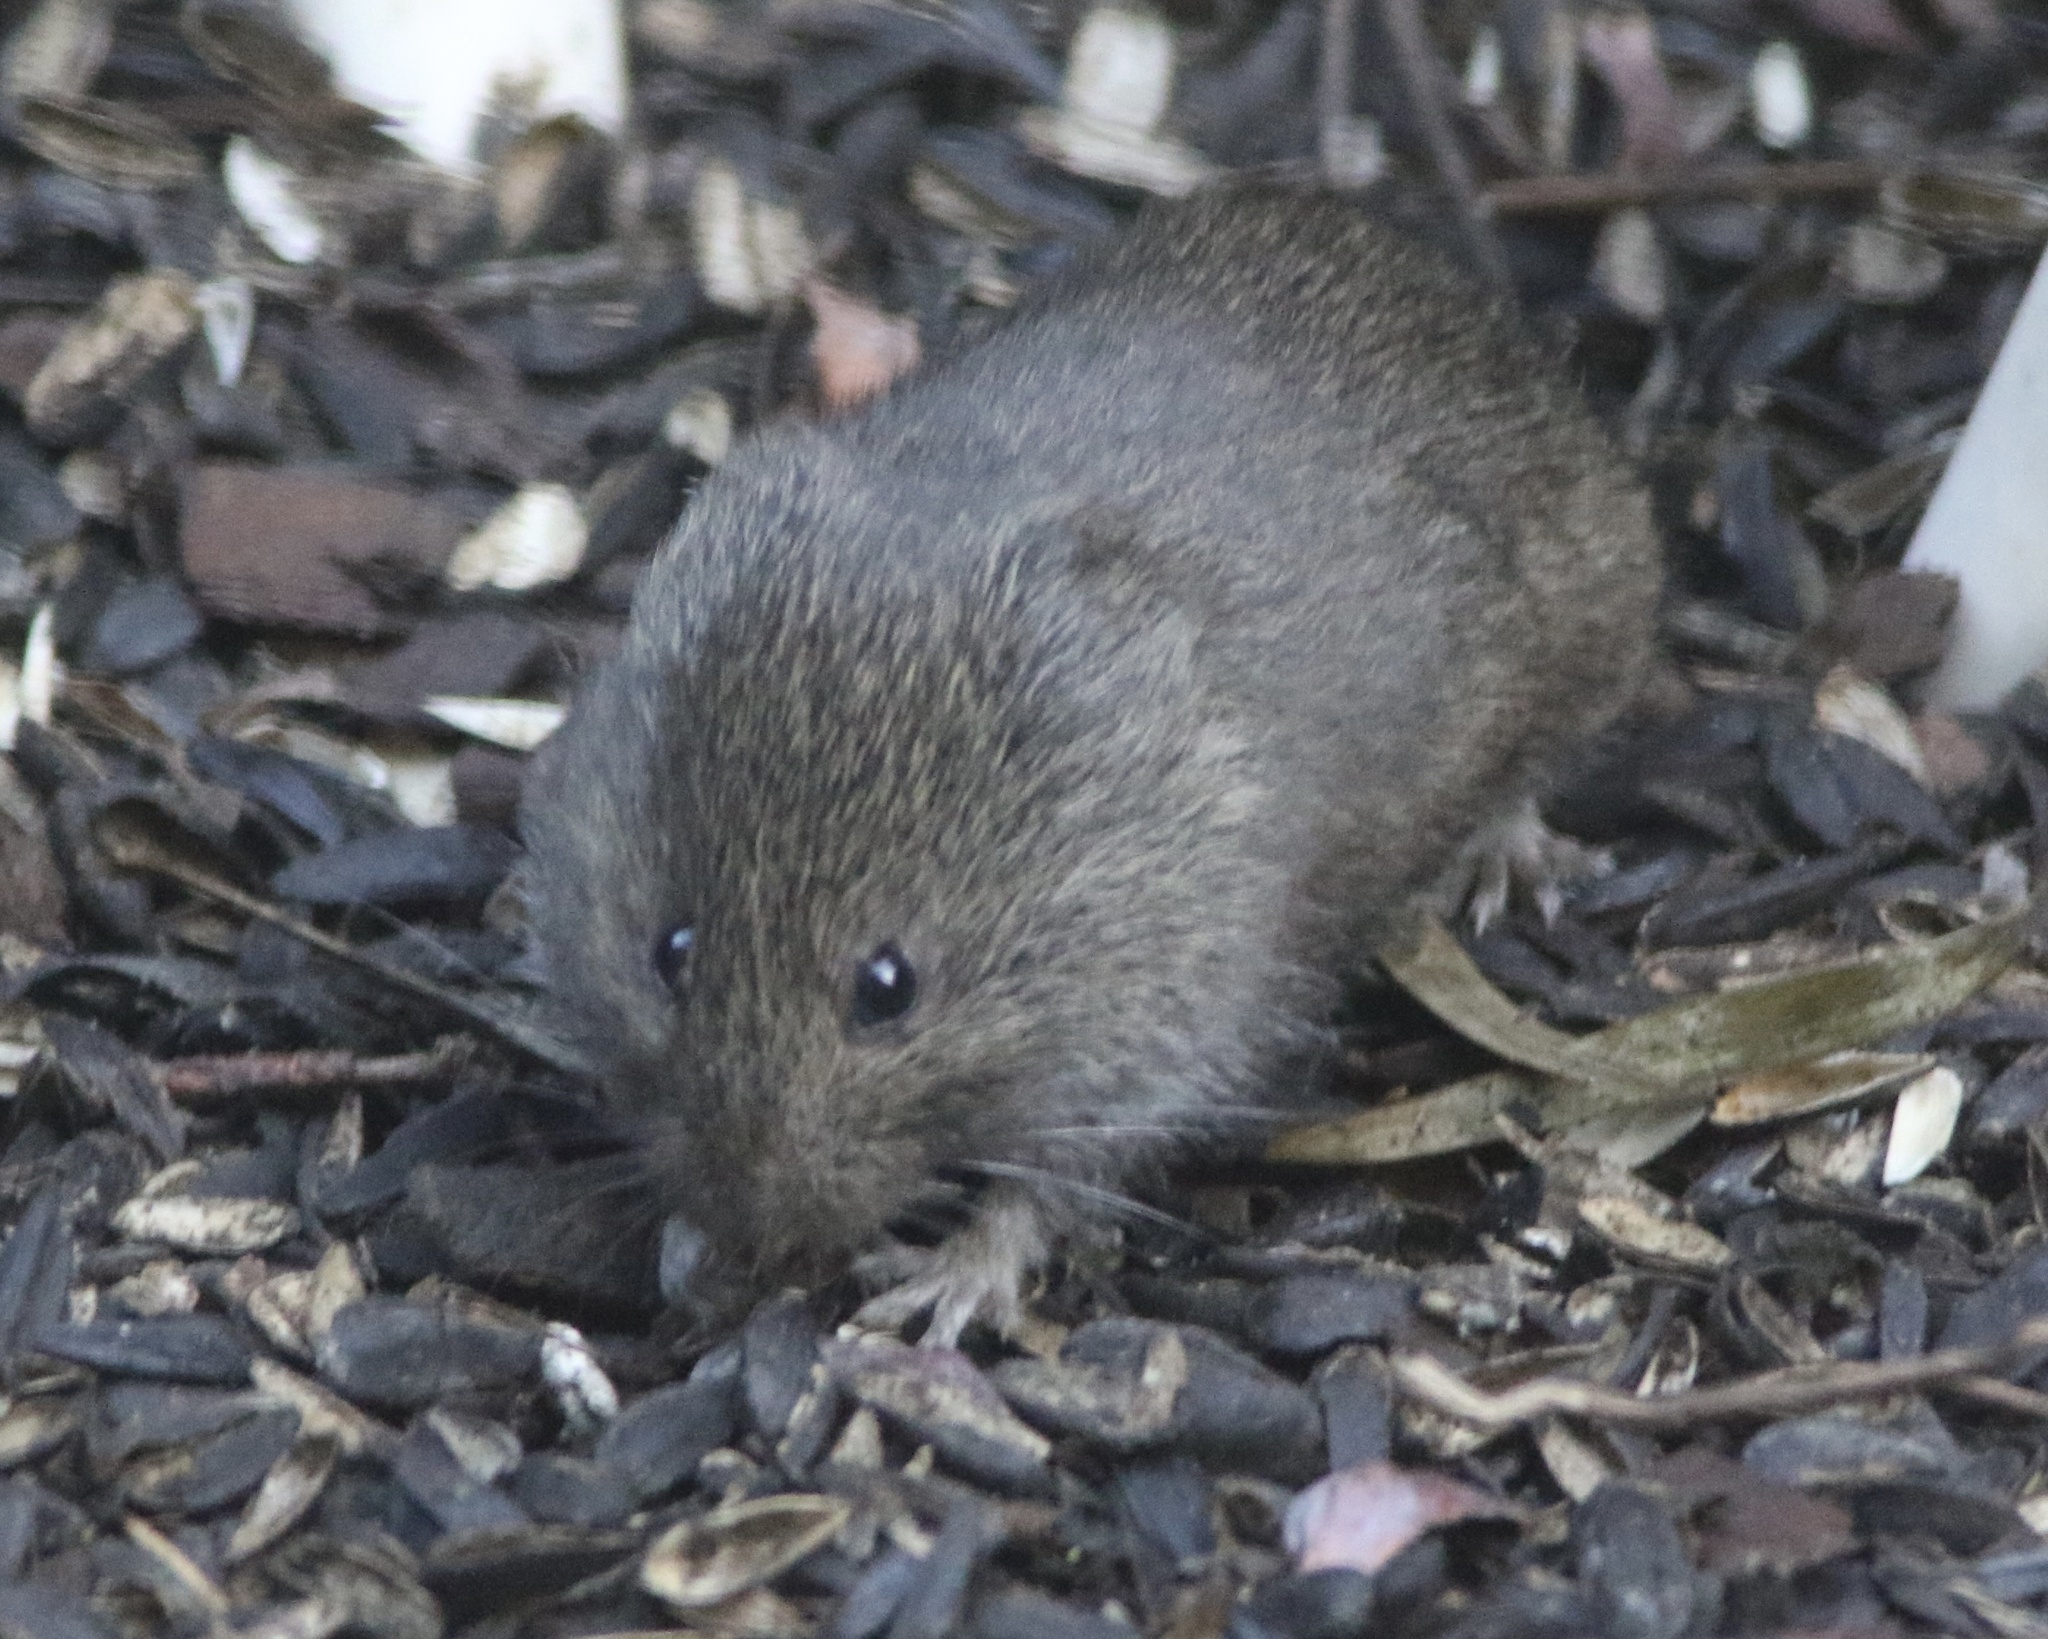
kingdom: Animalia
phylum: Chordata
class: Mammalia
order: Rodentia
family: Cricetidae
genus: Microtus
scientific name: Microtus californicus
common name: California vole
